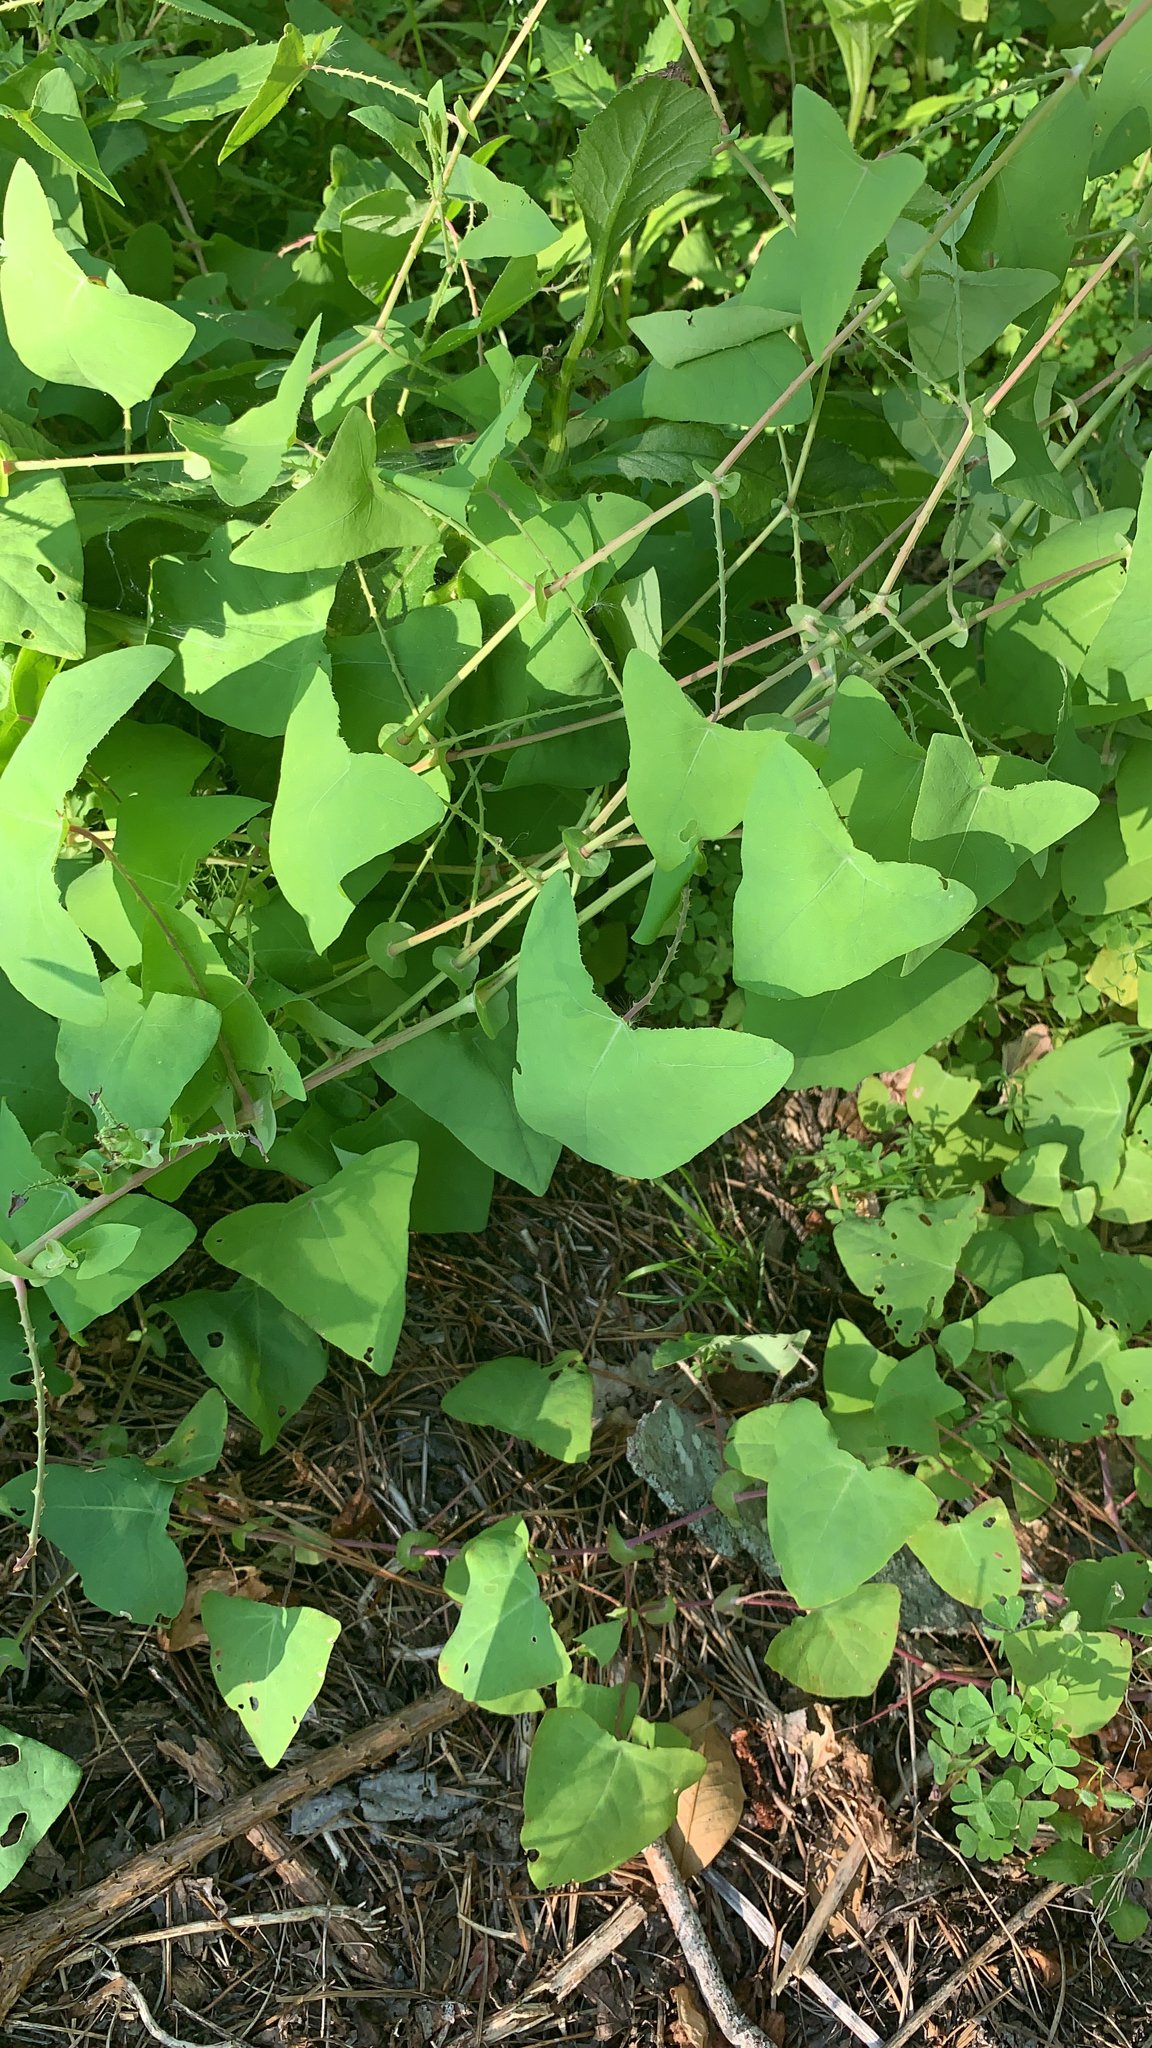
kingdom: Plantae
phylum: Tracheophyta
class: Magnoliopsida
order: Caryophyllales
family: Polygonaceae
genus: Persicaria
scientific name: Persicaria perfoliata
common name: Asiatic tearthumb
